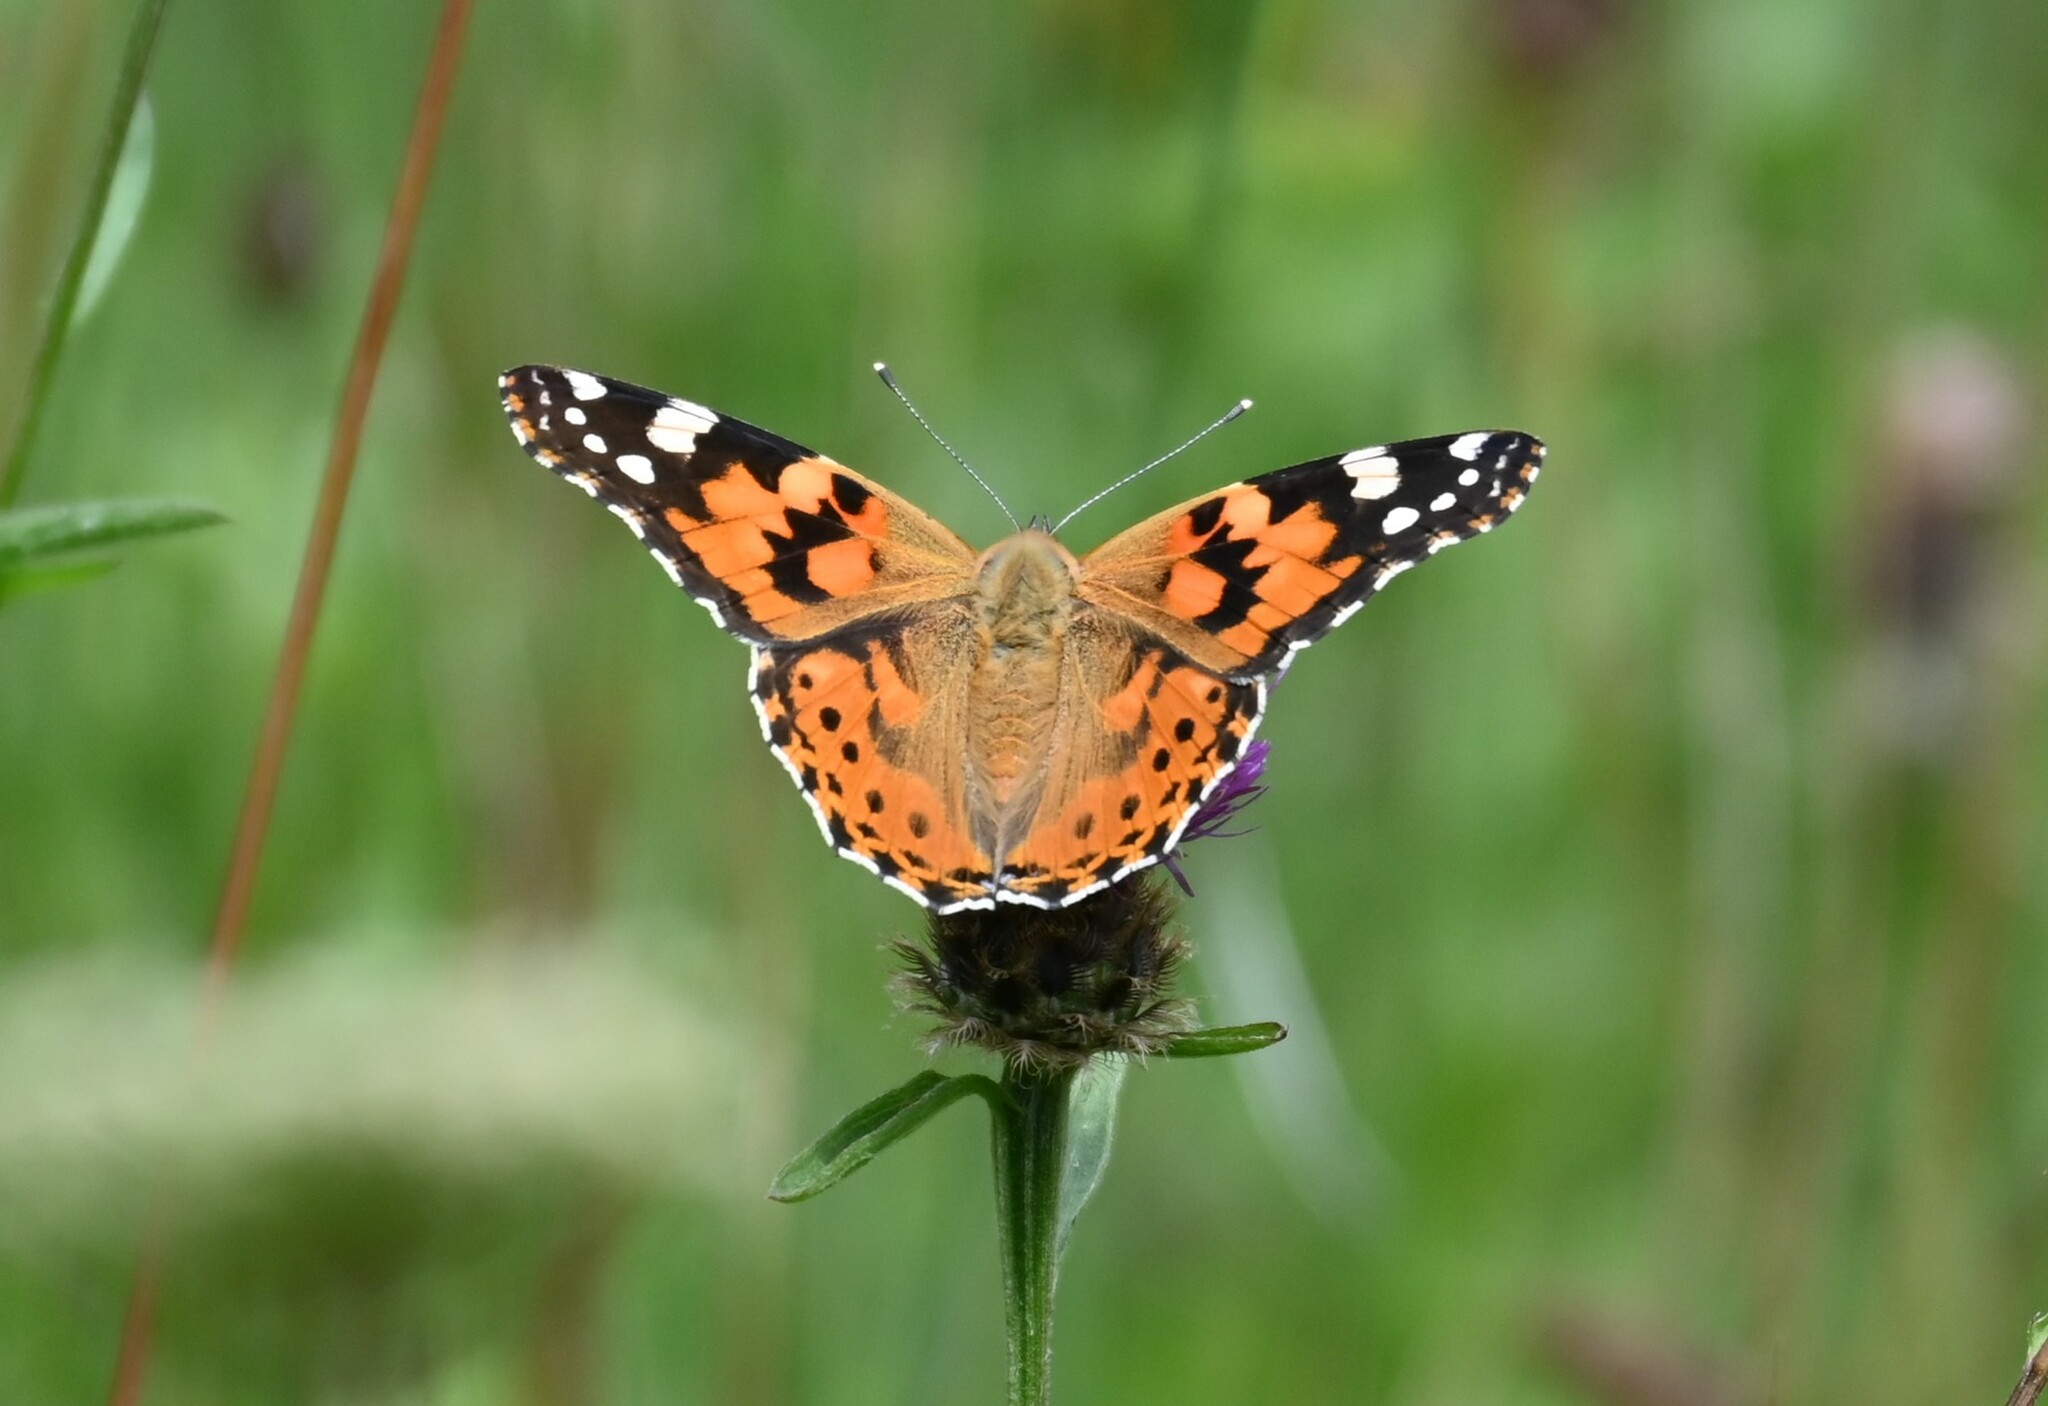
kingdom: Animalia
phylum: Arthropoda
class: Insecta
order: Lepidoptera
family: Nymphalidae
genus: Vanessa
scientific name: Vanessa cardui
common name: Painted lady
